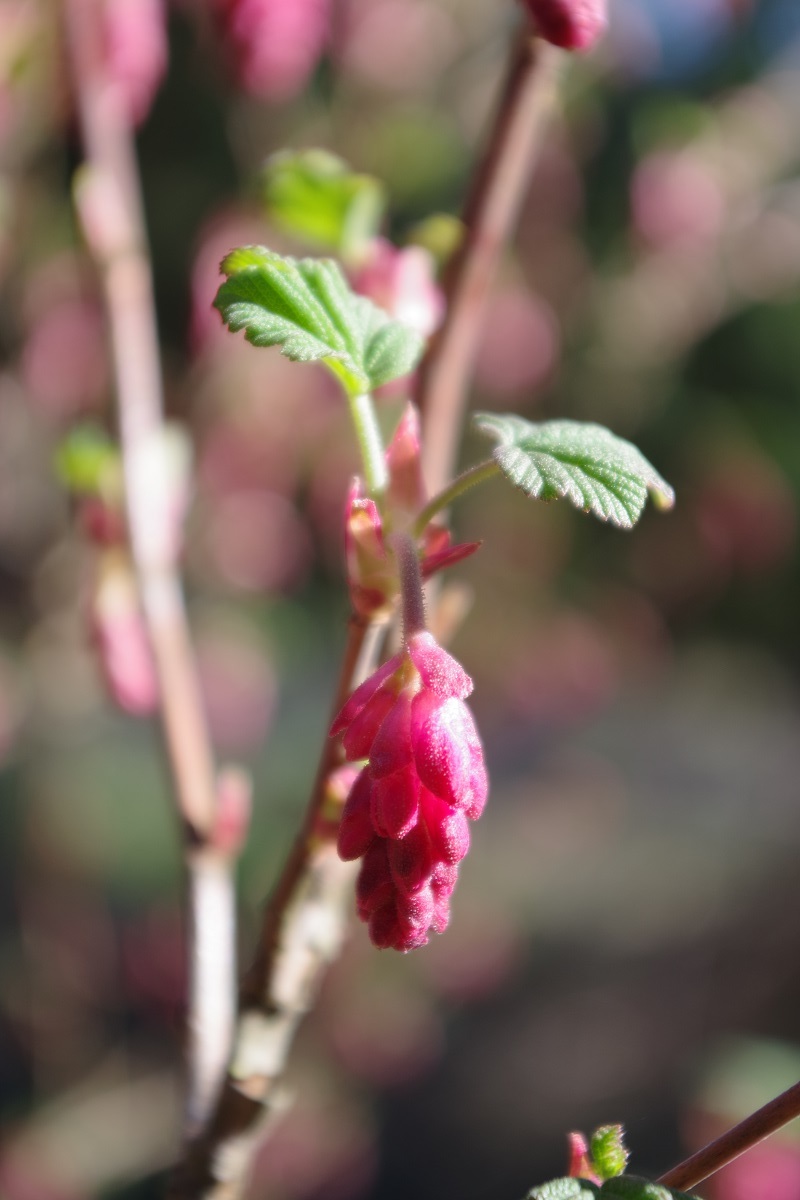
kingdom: Plantae
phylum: Tracheophyta
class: Magnoliopsida
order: Saxifragales
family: Grossulariaceae
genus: Ribes
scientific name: Ribes sanguineum
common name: Flowering currant
